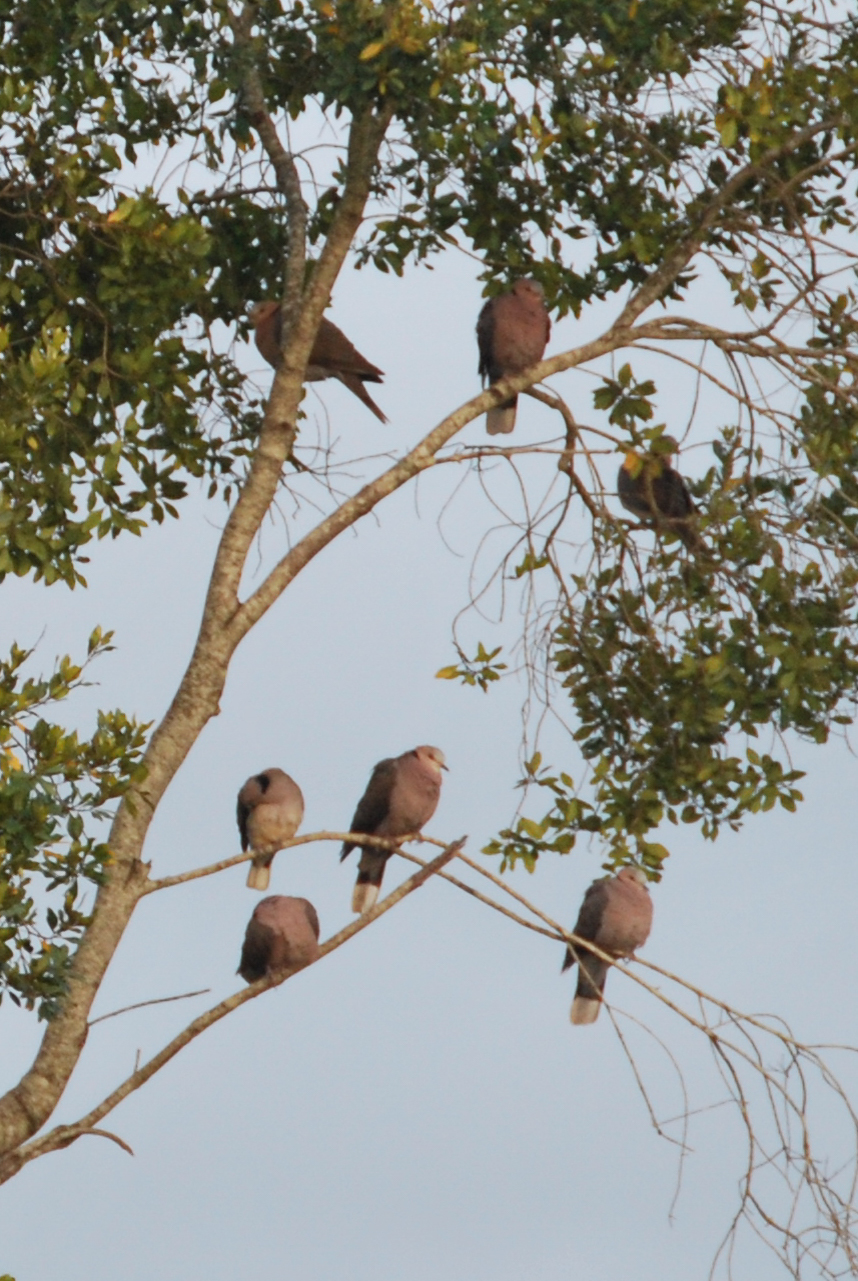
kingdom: Animalia
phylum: Chordata
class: Aves
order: Columbiformes
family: Columbidae
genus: Streptopelia
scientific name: Streptopelia semitorquata
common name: Red-eyed dove
